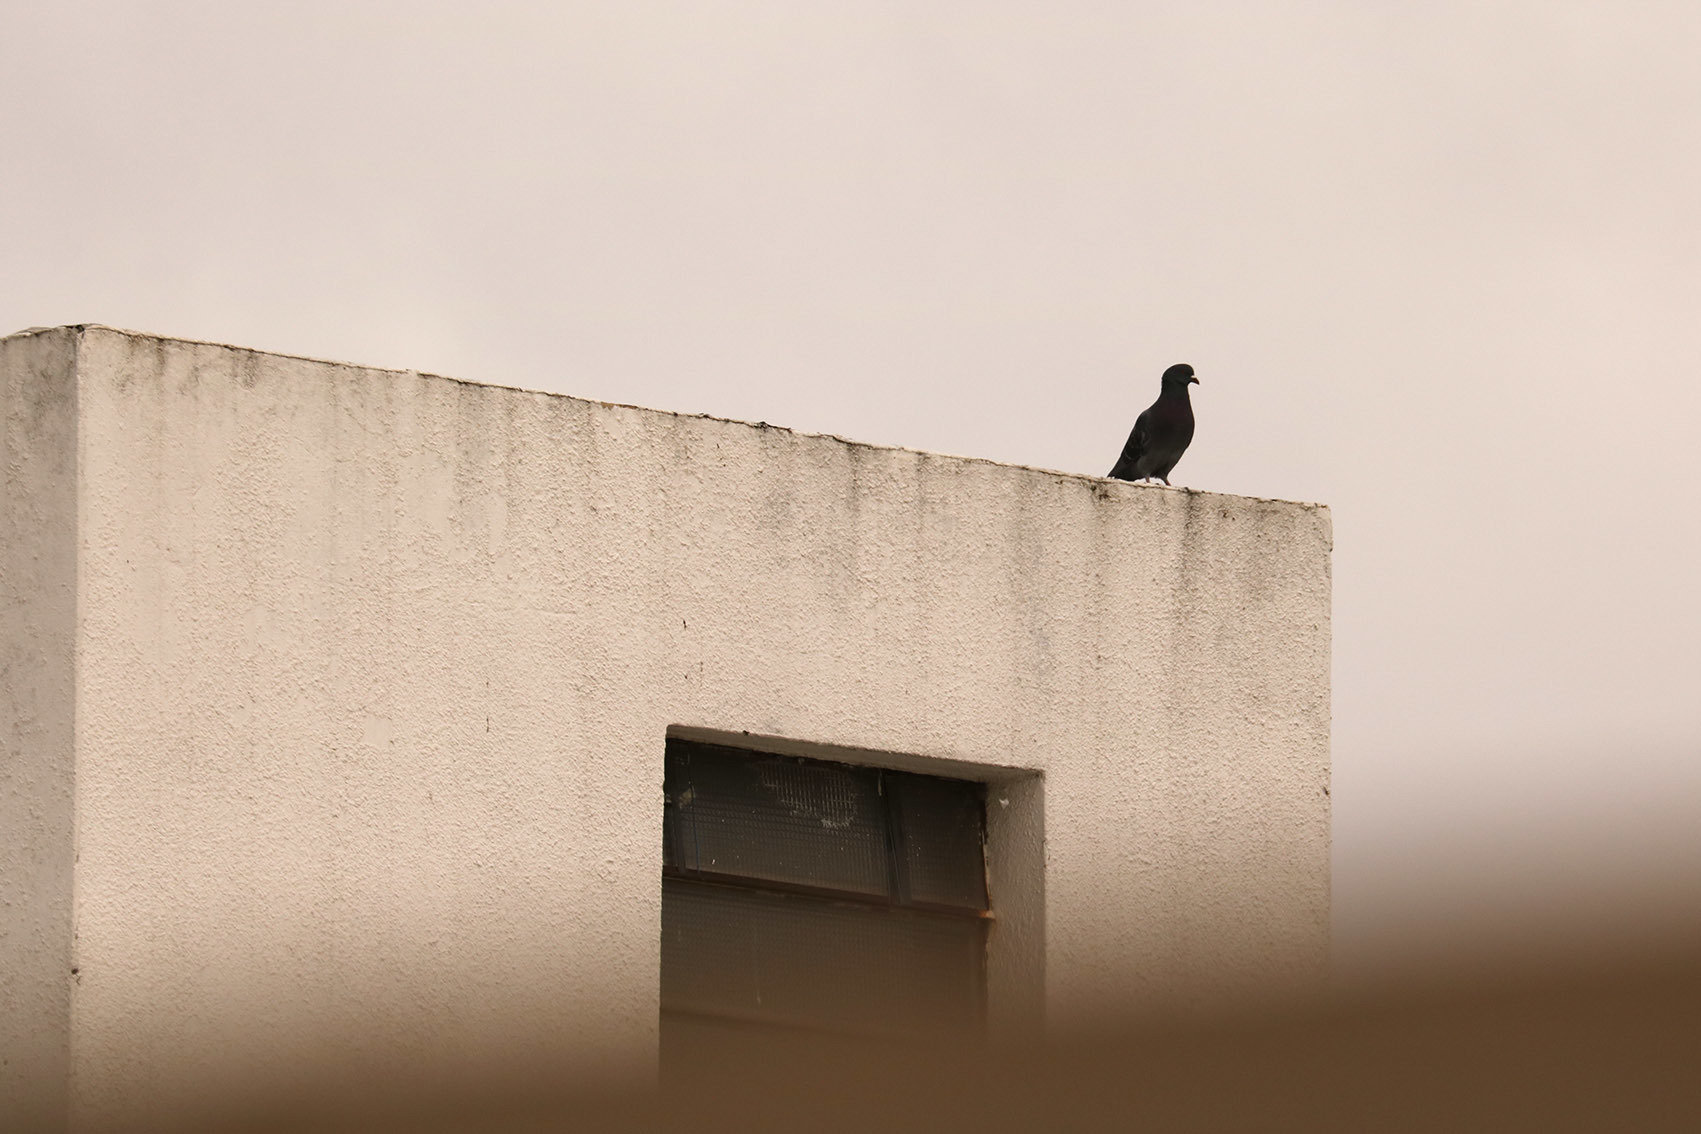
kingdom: Animalia
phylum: Chordata
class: Aves
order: Columbiformes
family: Columbidae
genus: Columba
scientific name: Columba livia
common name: Rock pigeon
